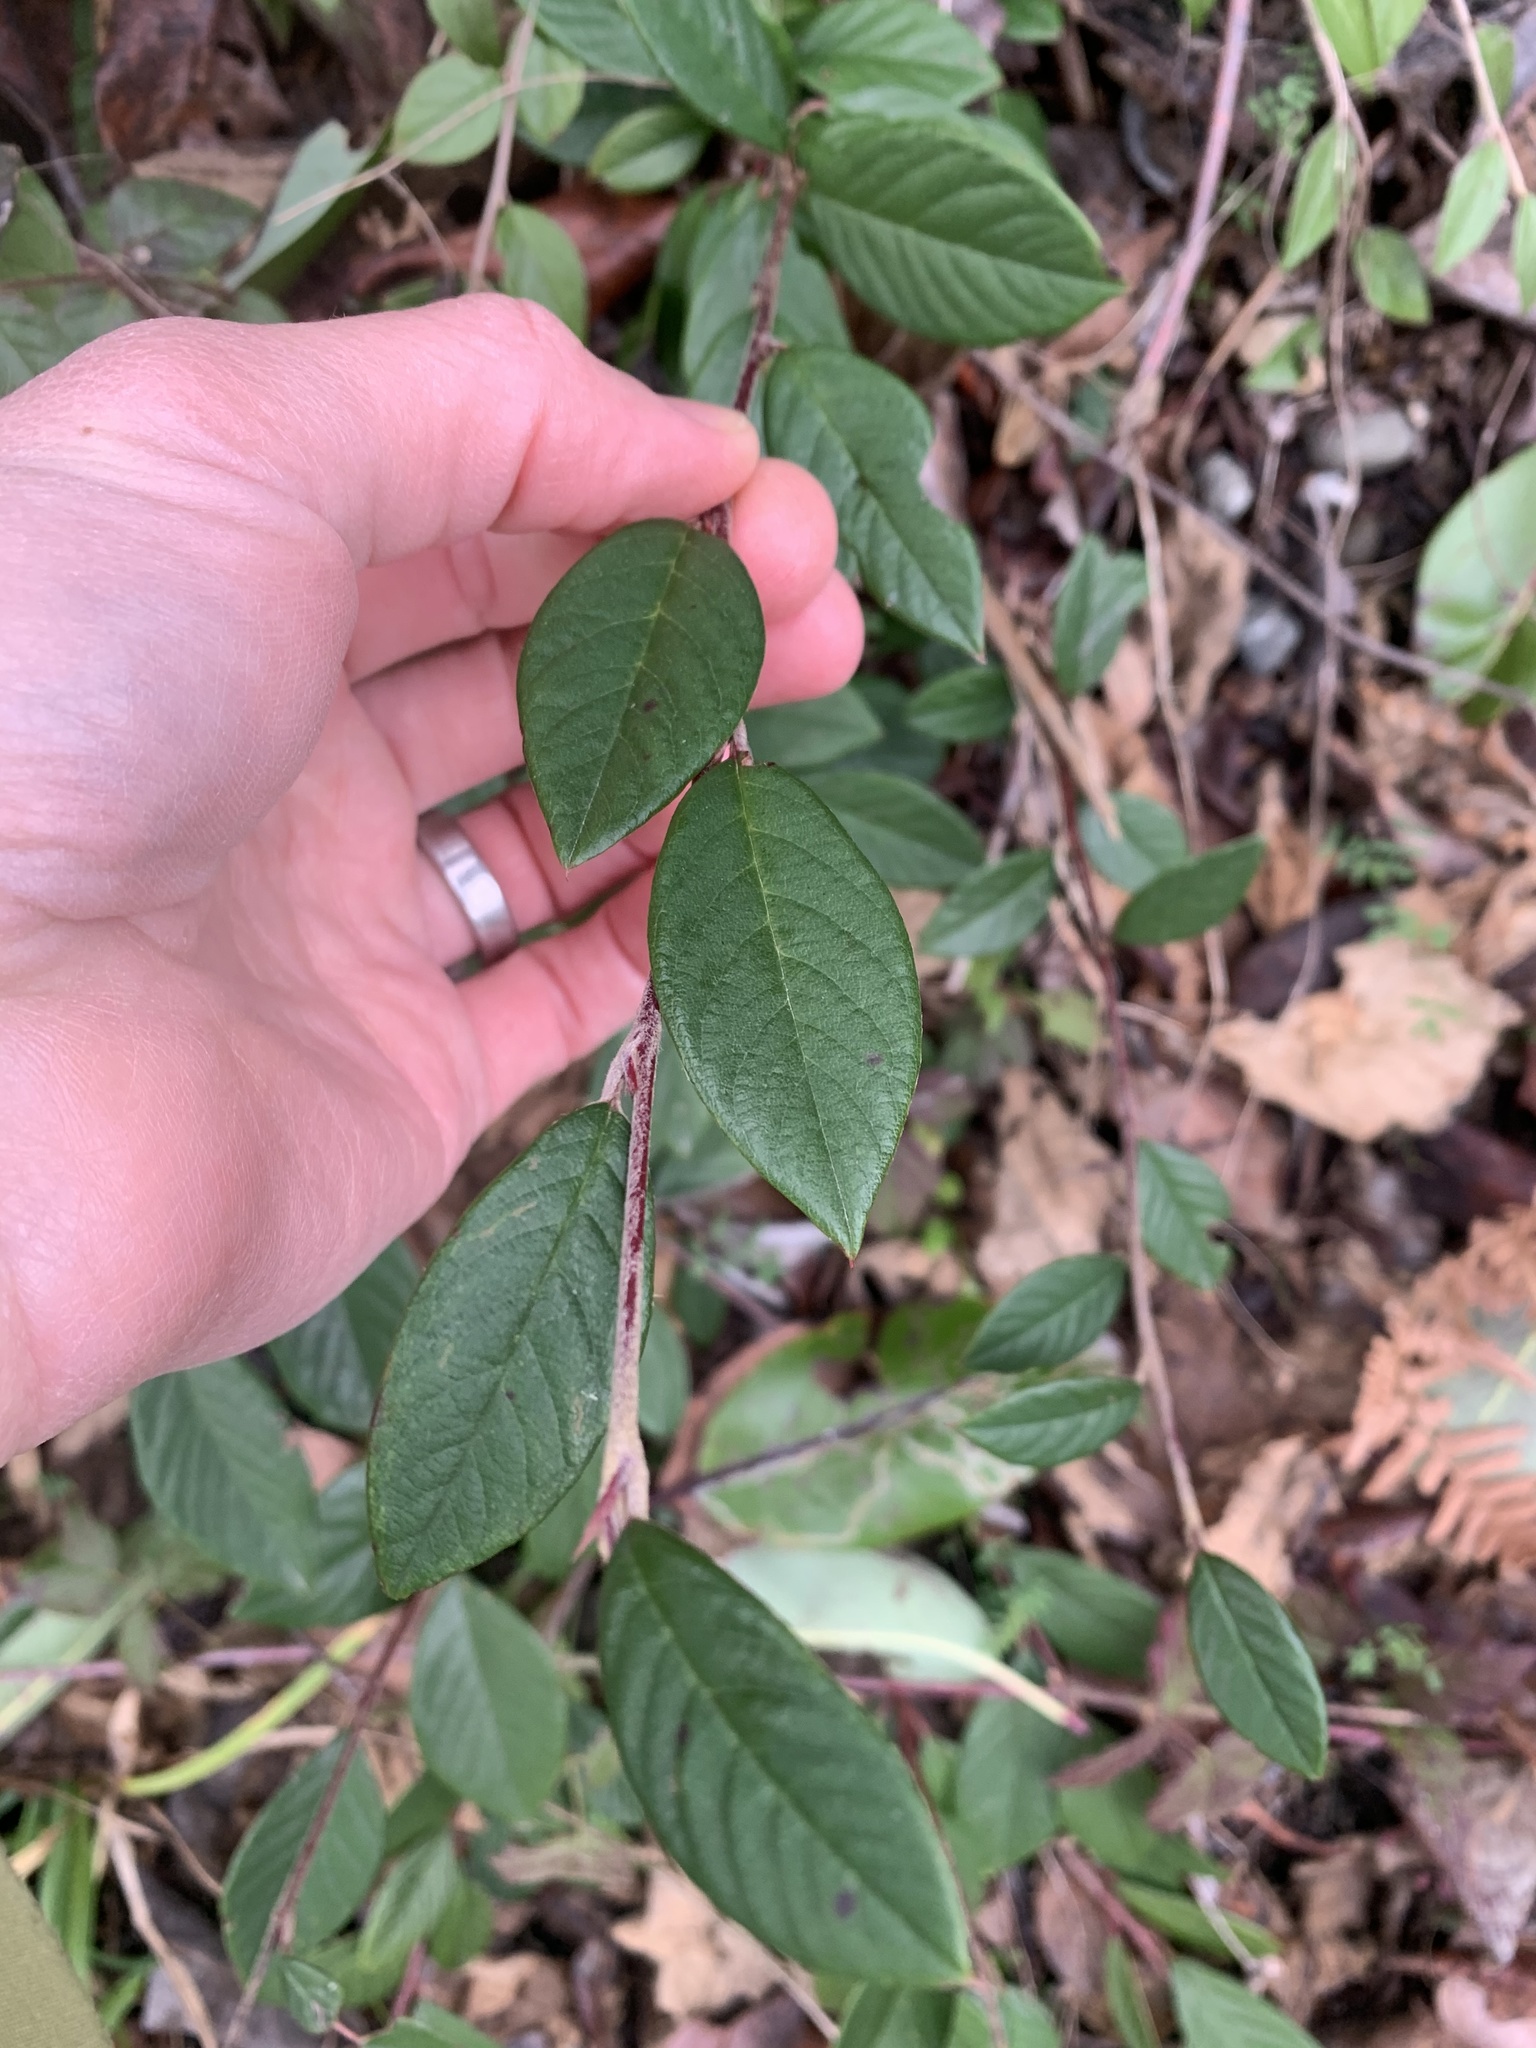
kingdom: Plantae
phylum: Tracheophyta
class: Magnoliopsida
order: Rosales
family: Rosaceae
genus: Cotoneaster
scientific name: Cotoneaster dielsianus
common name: Diels's cotoneaster
